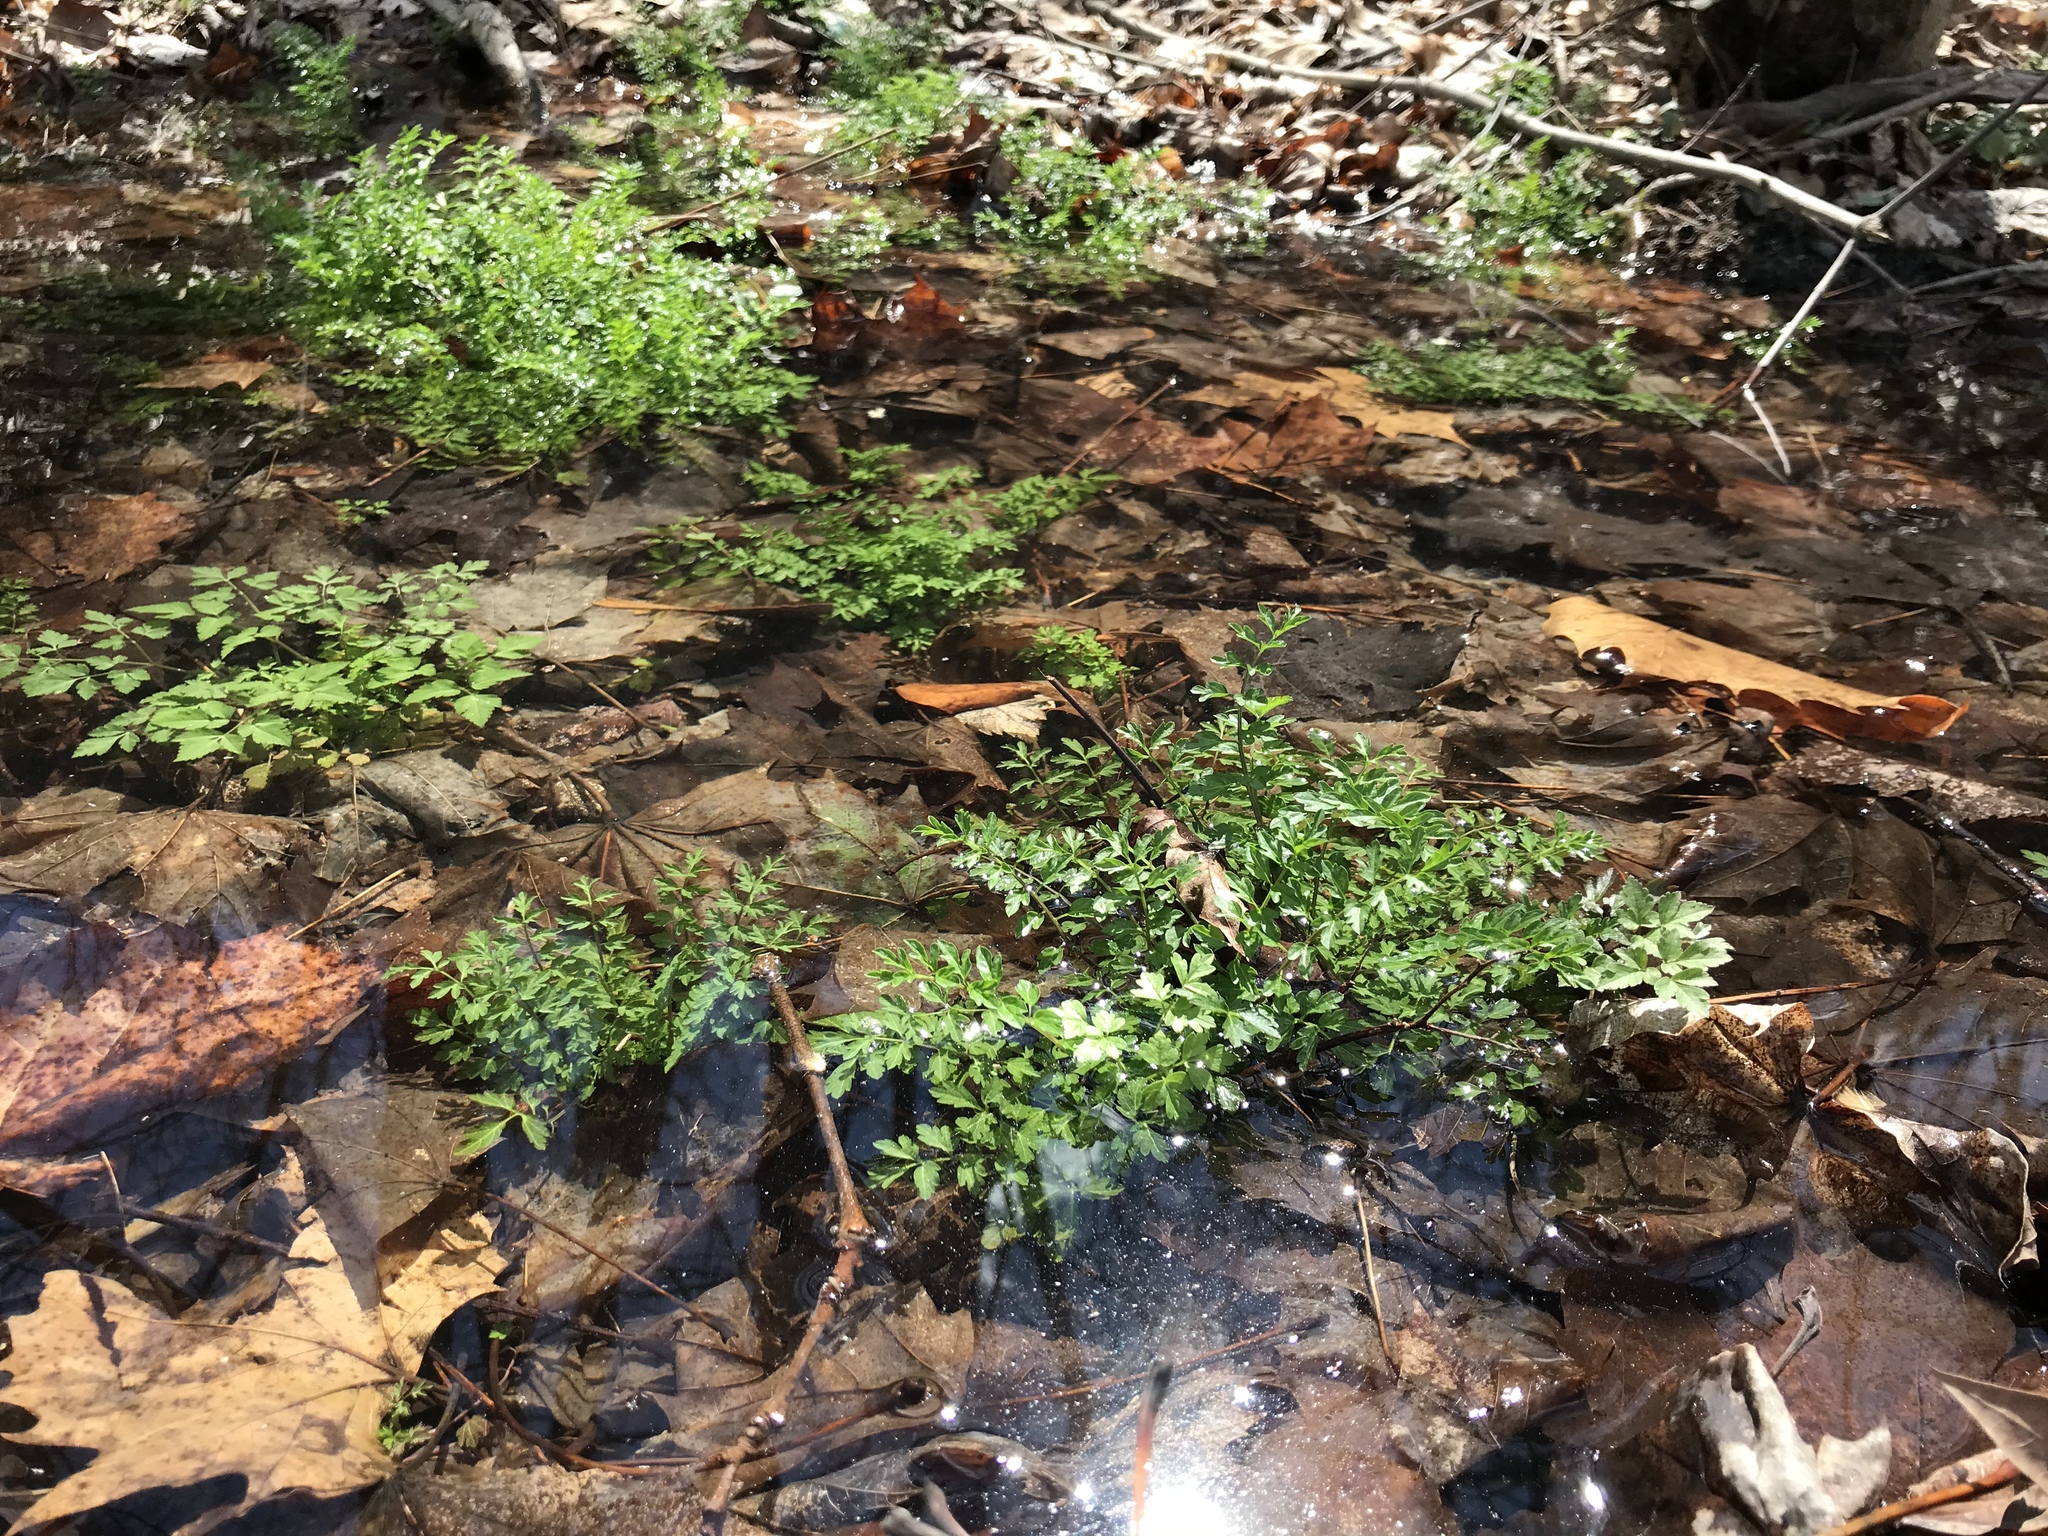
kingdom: Plantae
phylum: Tracheophyta
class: Magnoliopsida
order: Brassicales
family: Brassicaceae
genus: Cardamine
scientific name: Cardamine impatiens
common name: Narrow-leaved bitter-cress
